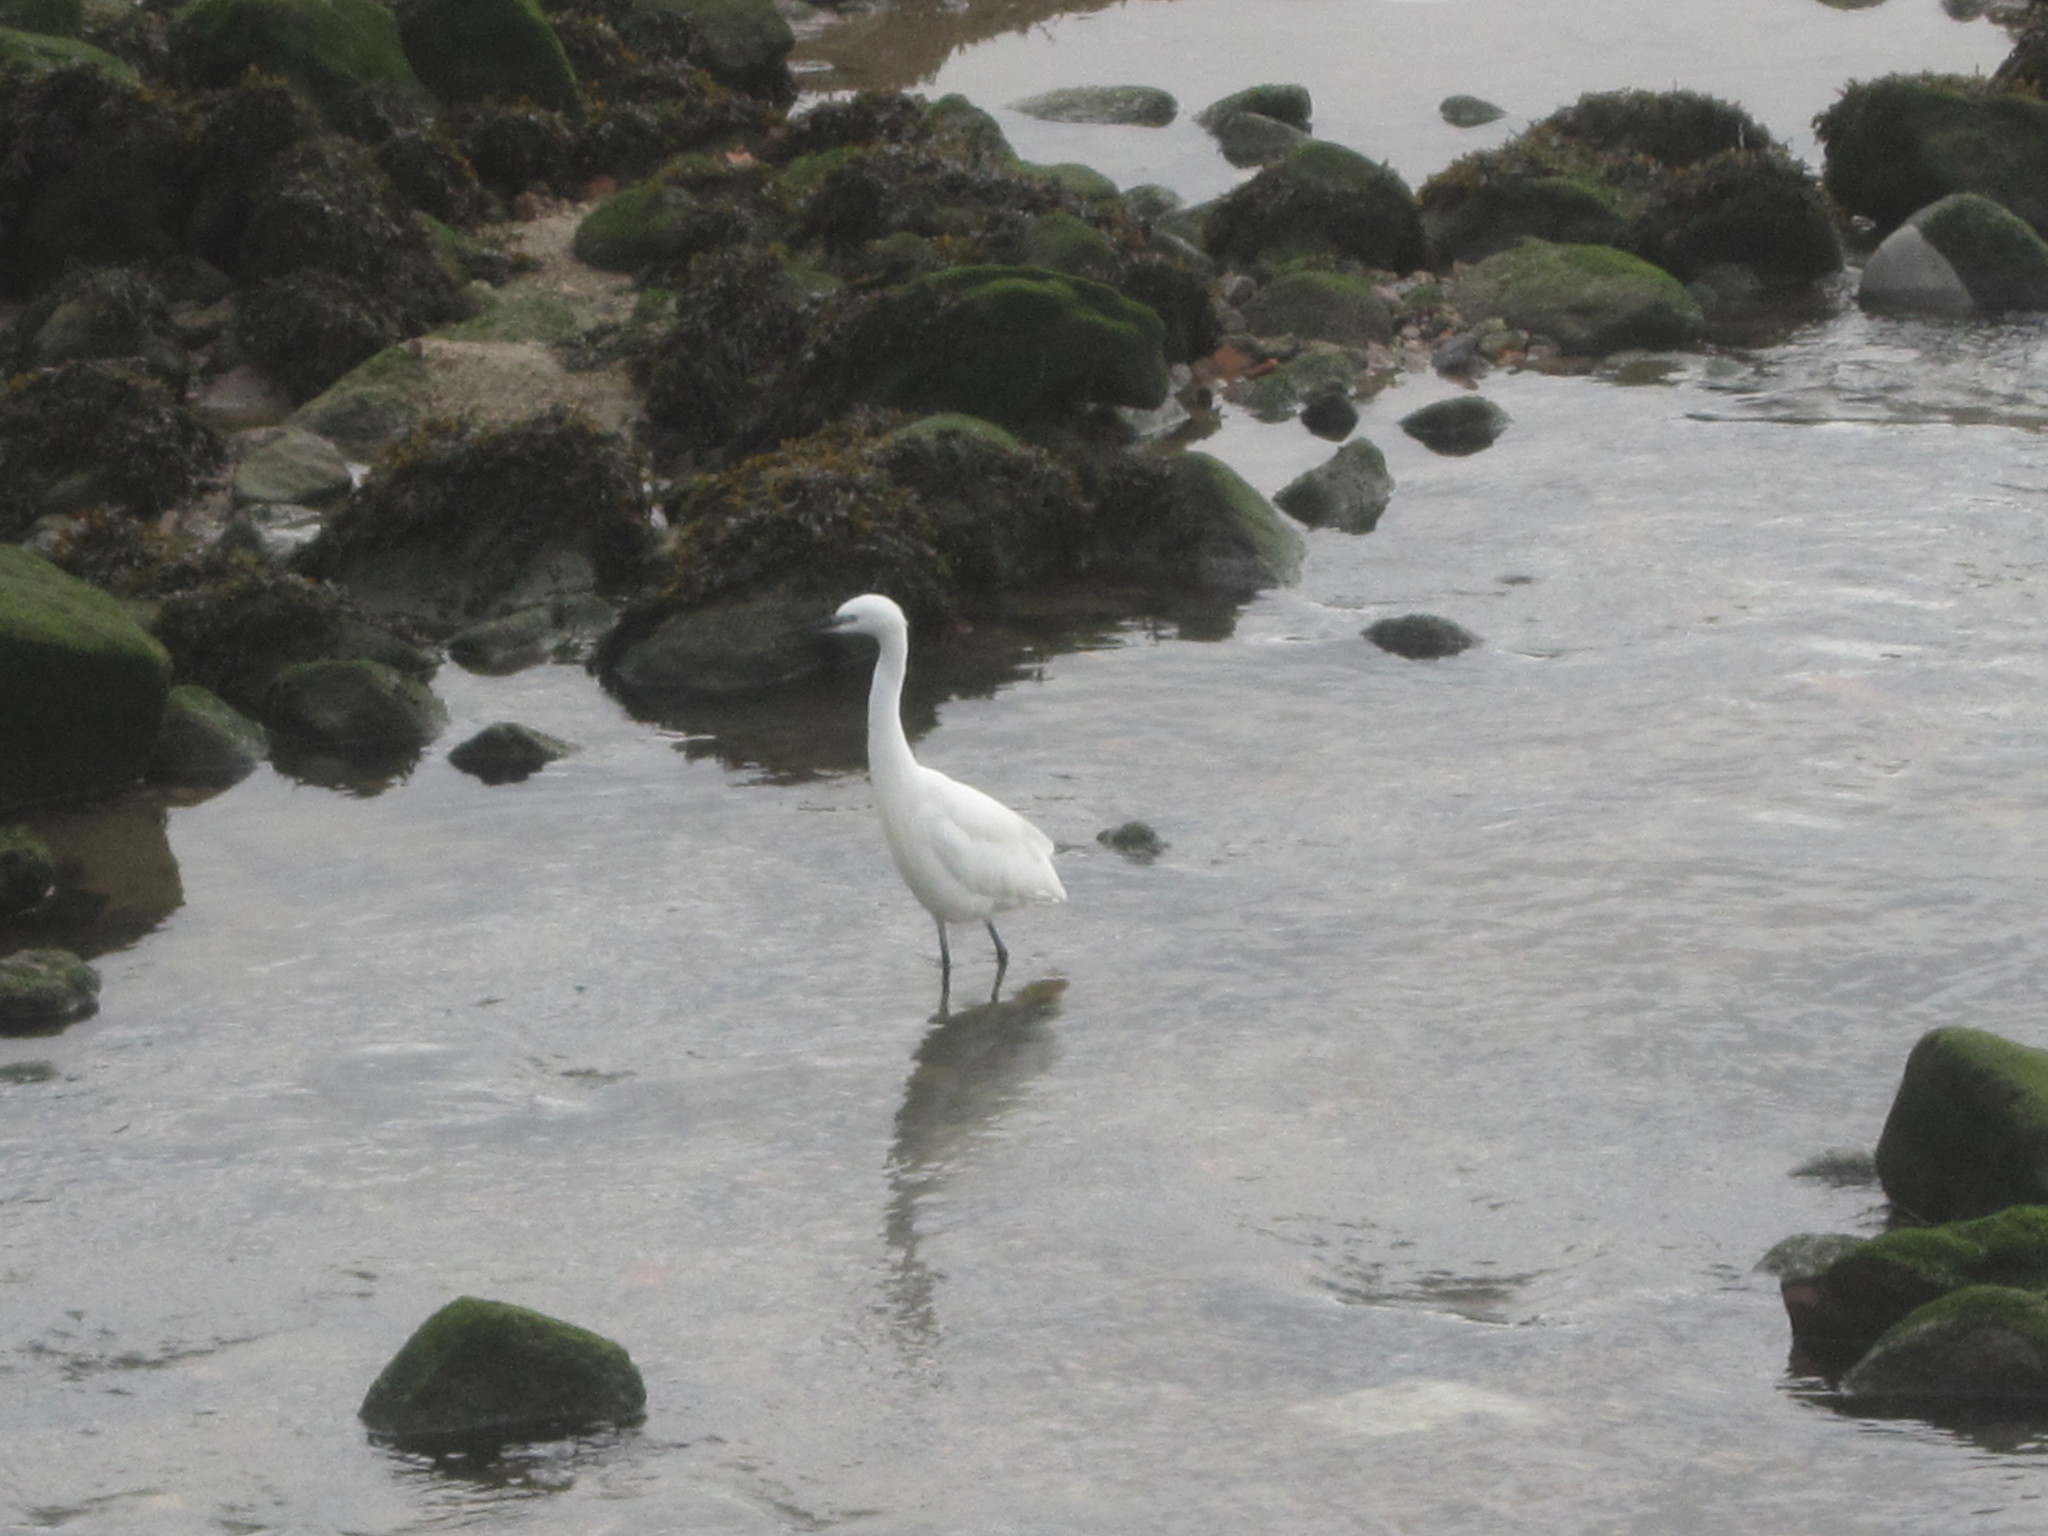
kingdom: Animalia
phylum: Chordata
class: Aves
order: Pelecaniformes
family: Ardeidae
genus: Egretta
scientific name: Egretta garzetta
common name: Little egret
